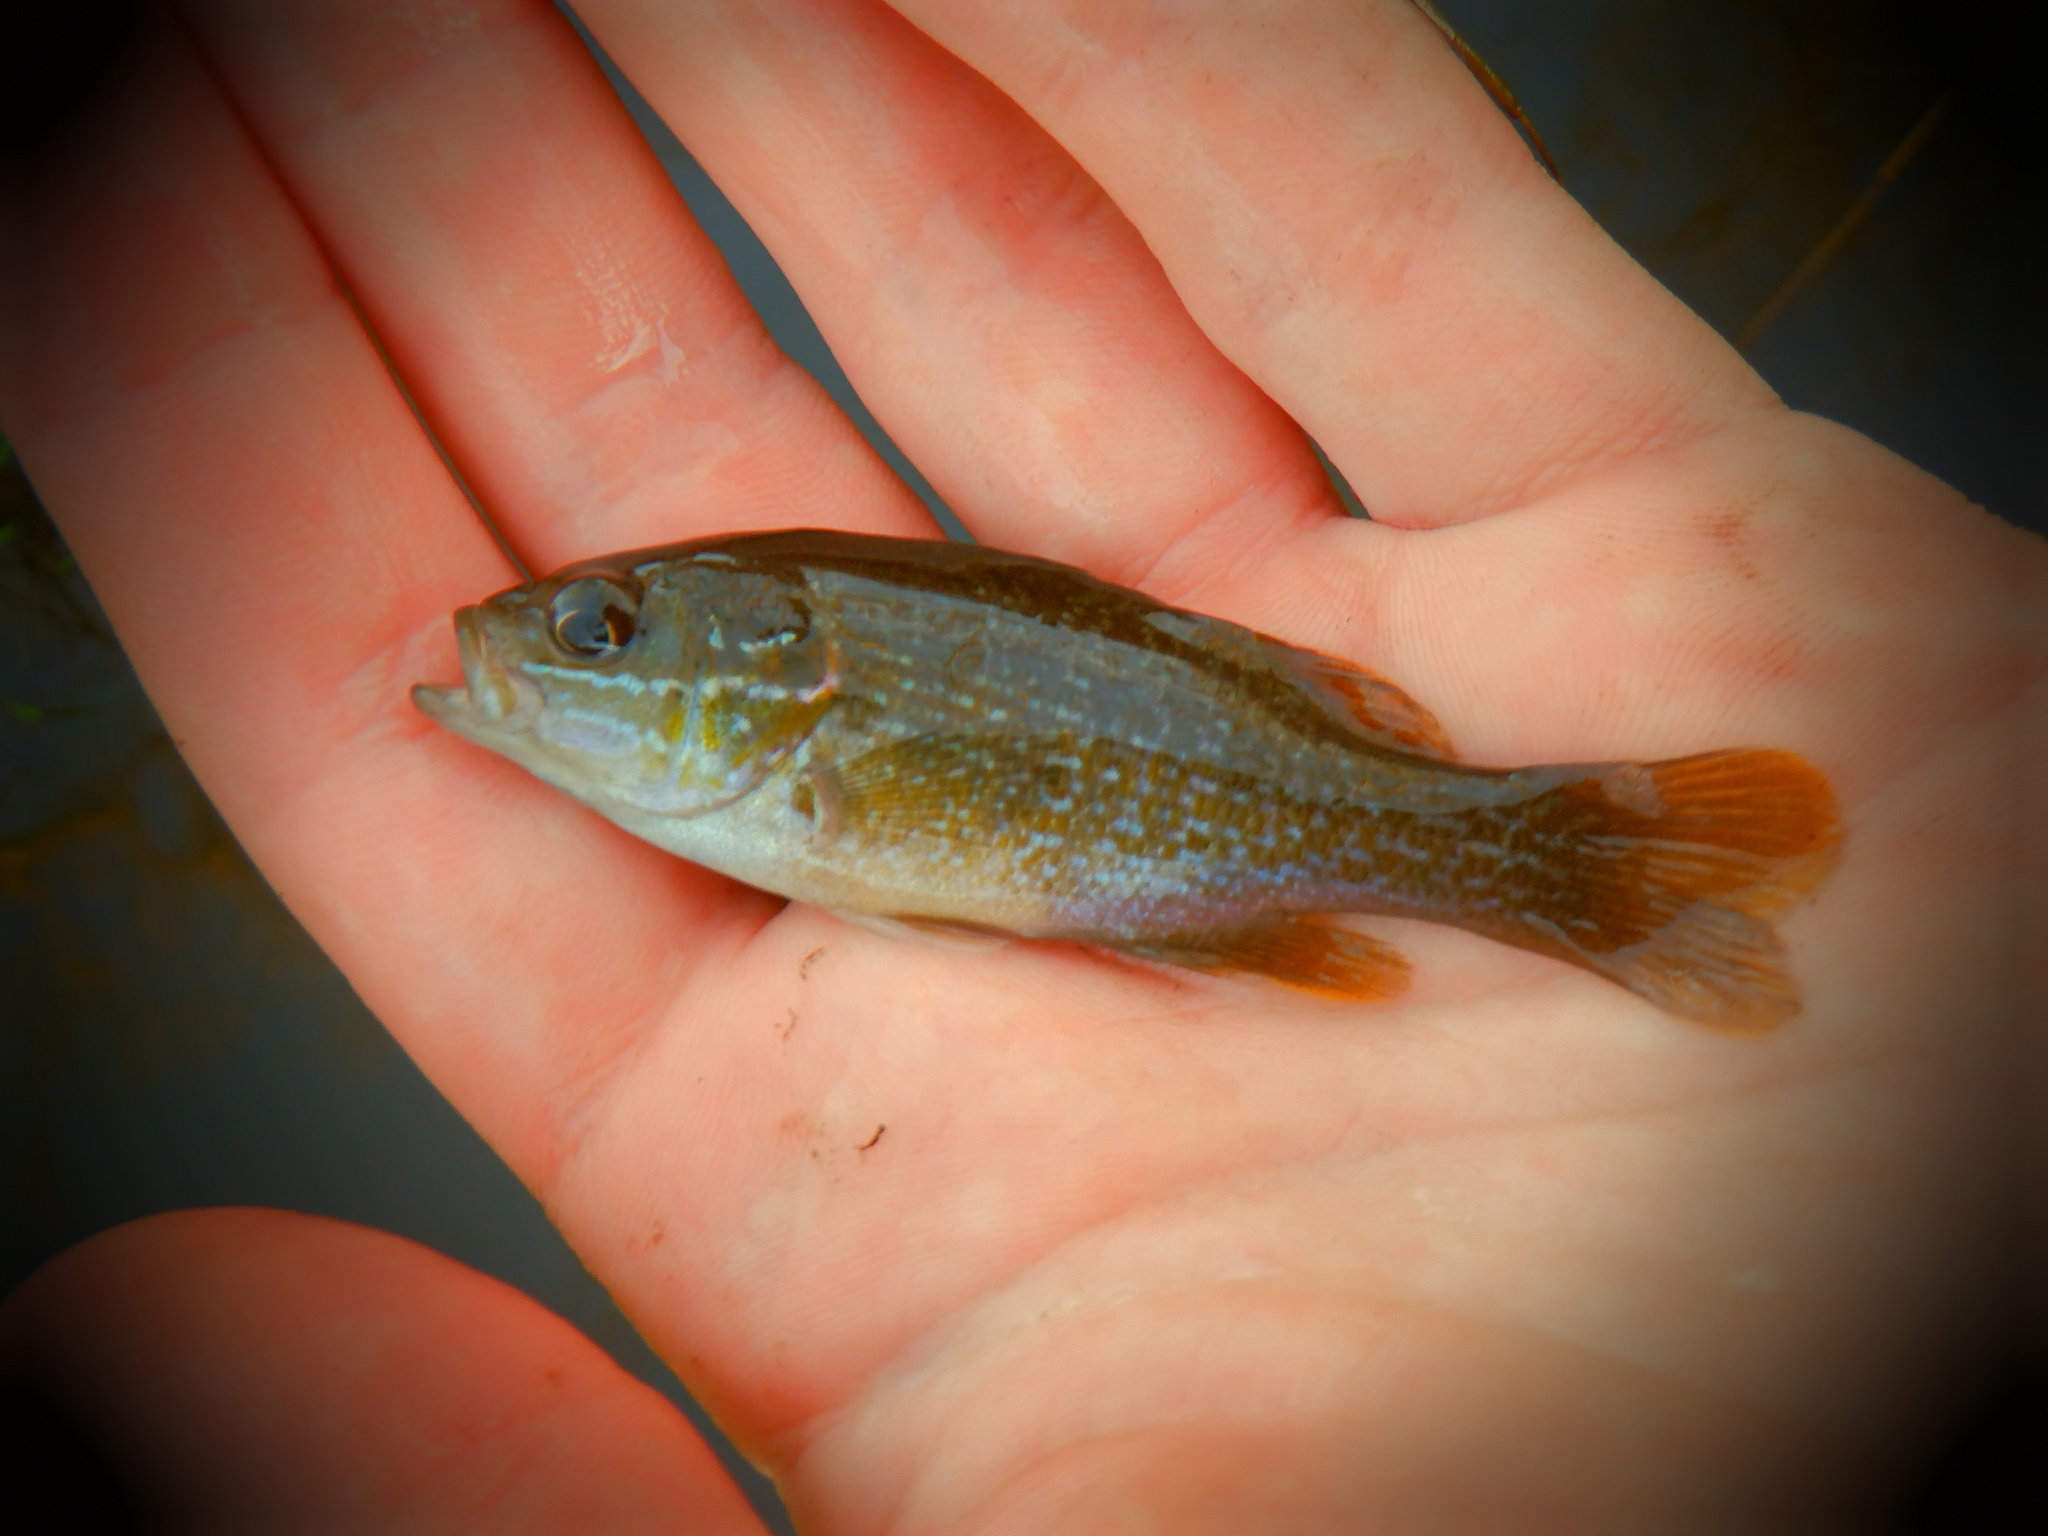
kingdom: Animalia
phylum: Chordata
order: Perciformes
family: Centrarchidae
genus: Lepomis
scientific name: Lepomis cyanellus
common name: Green sunfish
